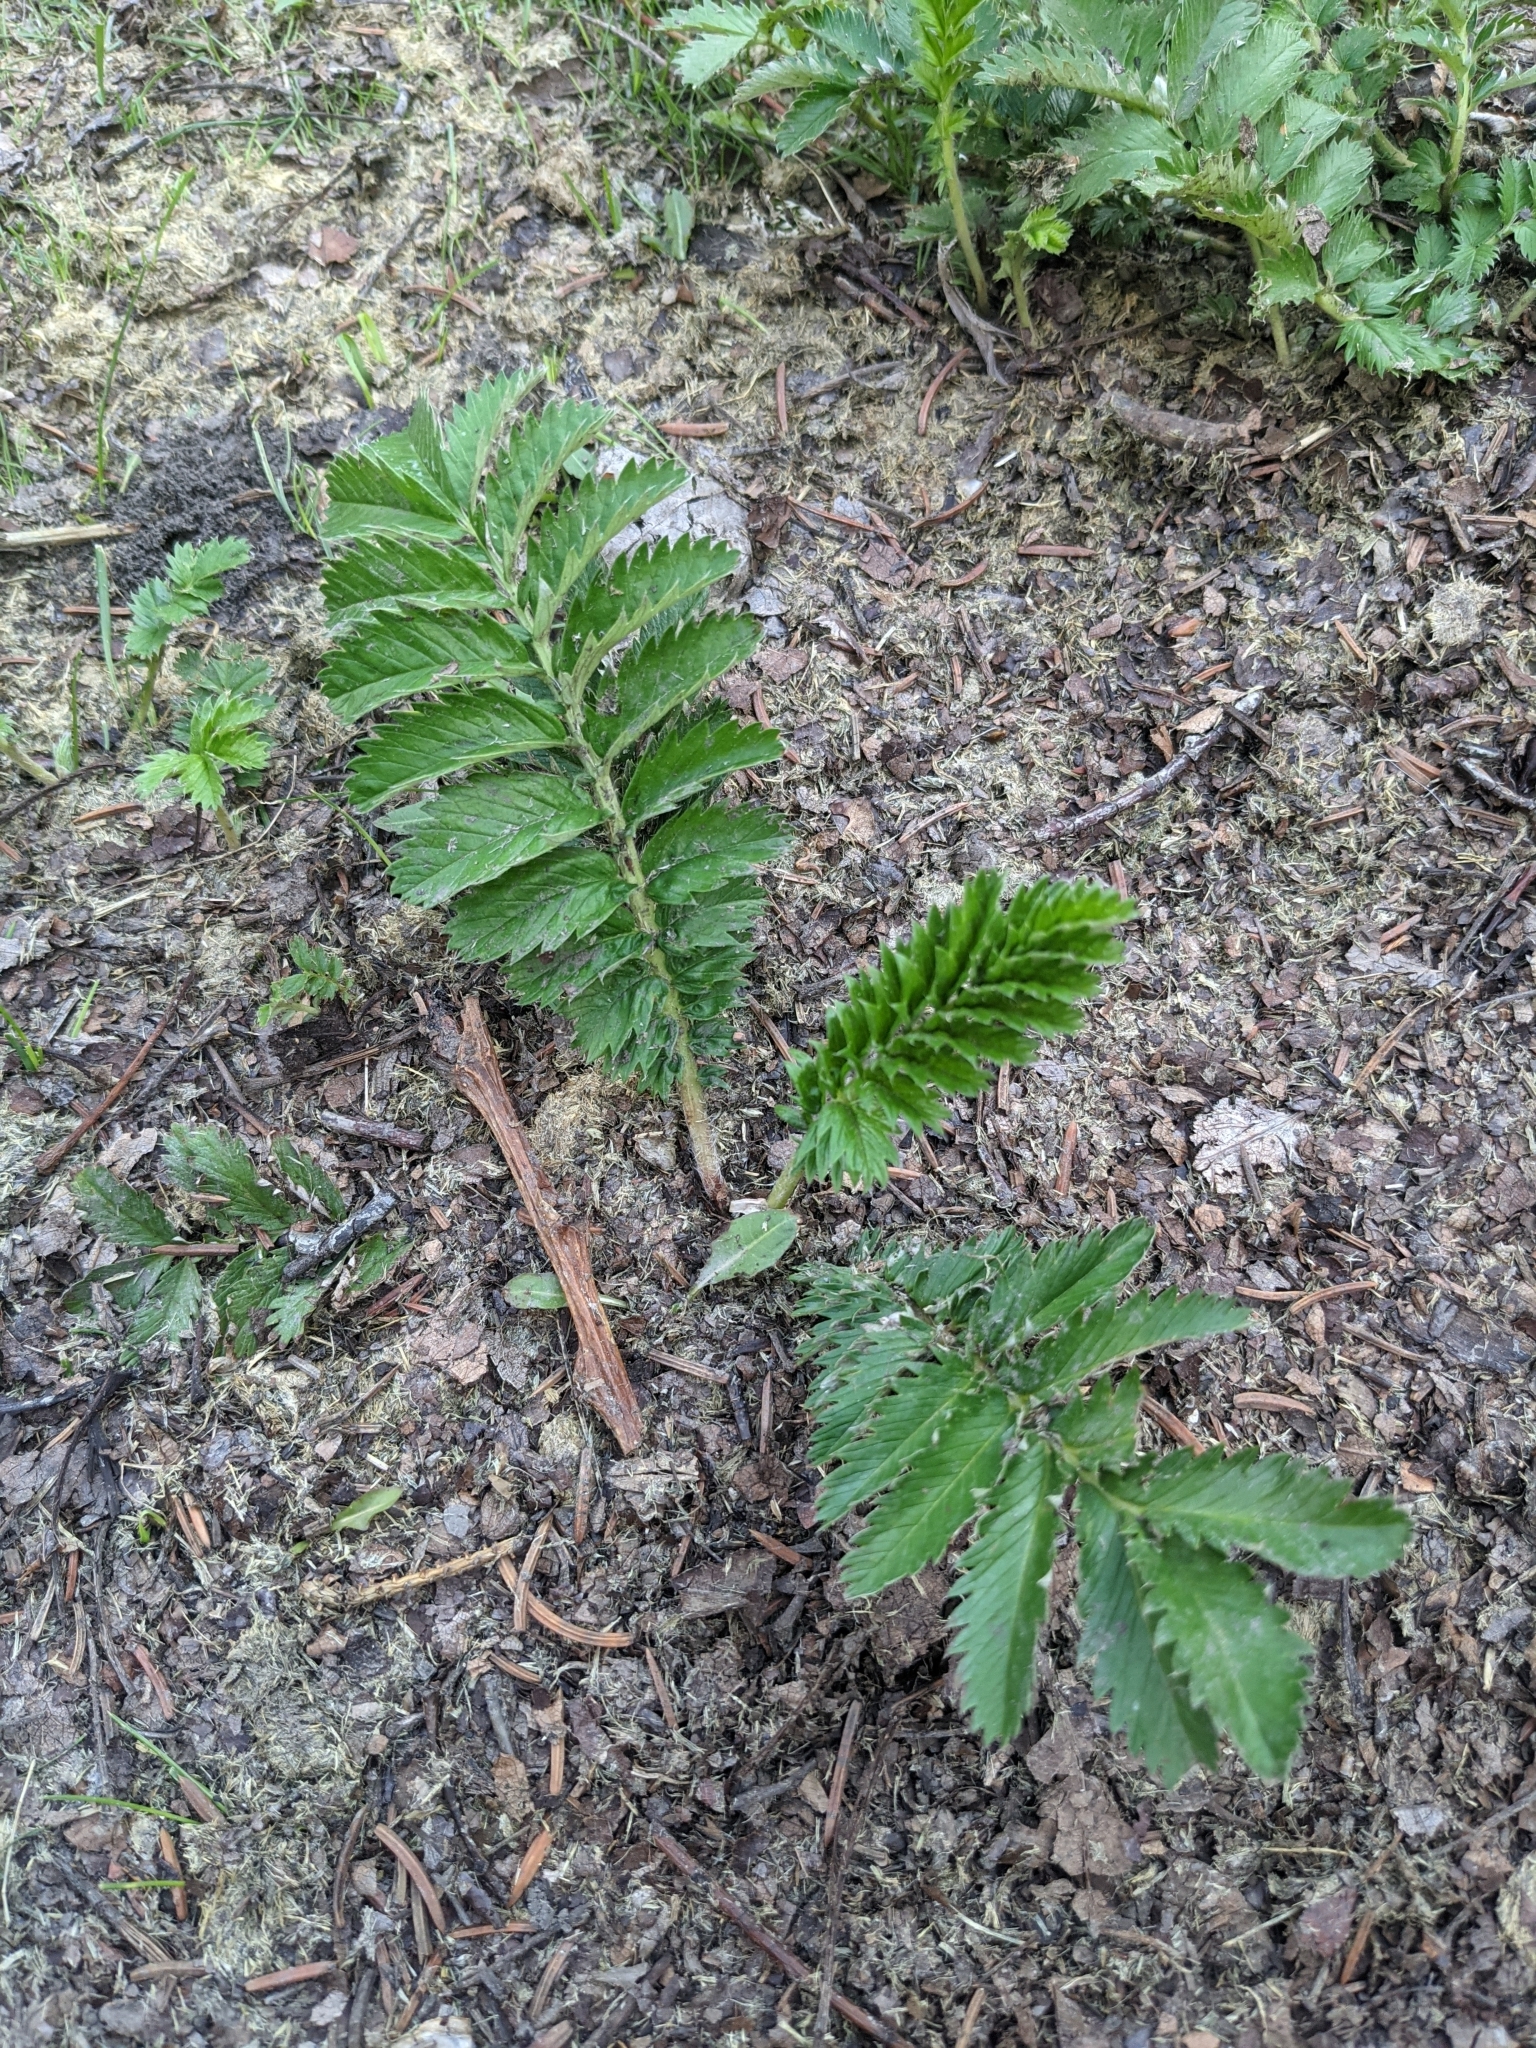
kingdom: Plantae
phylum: Tracheophyta
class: Magnoliopsida
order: Rosales
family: Rosaceae
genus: Argentina
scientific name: Argentina anserina
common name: Common silverweed
